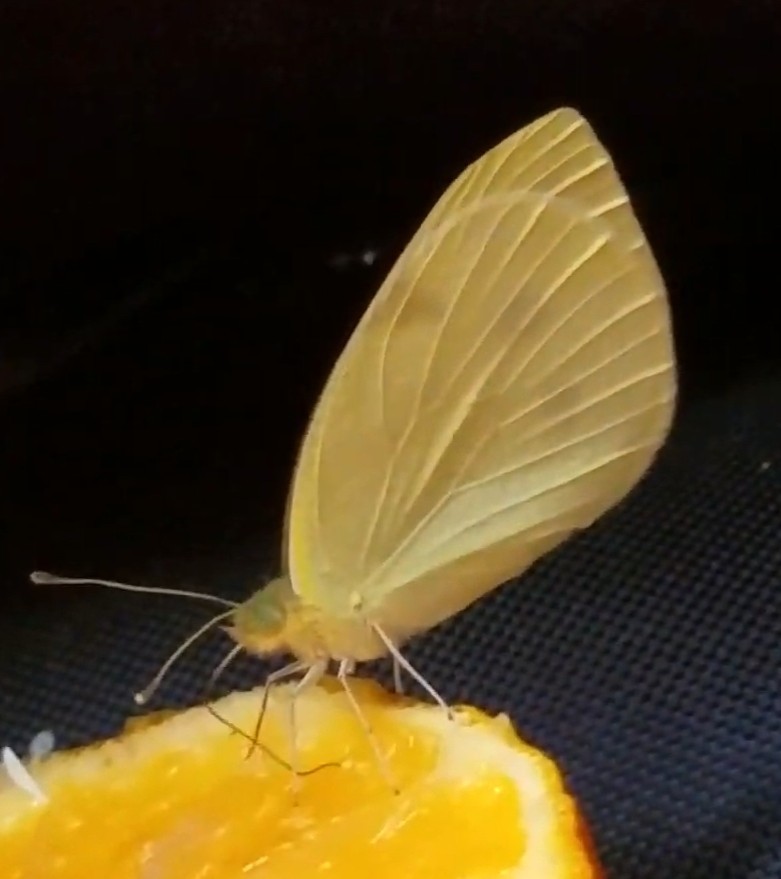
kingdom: Animalia
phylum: Arthropoda
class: Insecta
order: Lepidoptera
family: Pieridae
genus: Pieris
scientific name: Pieris rapae
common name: Small white
